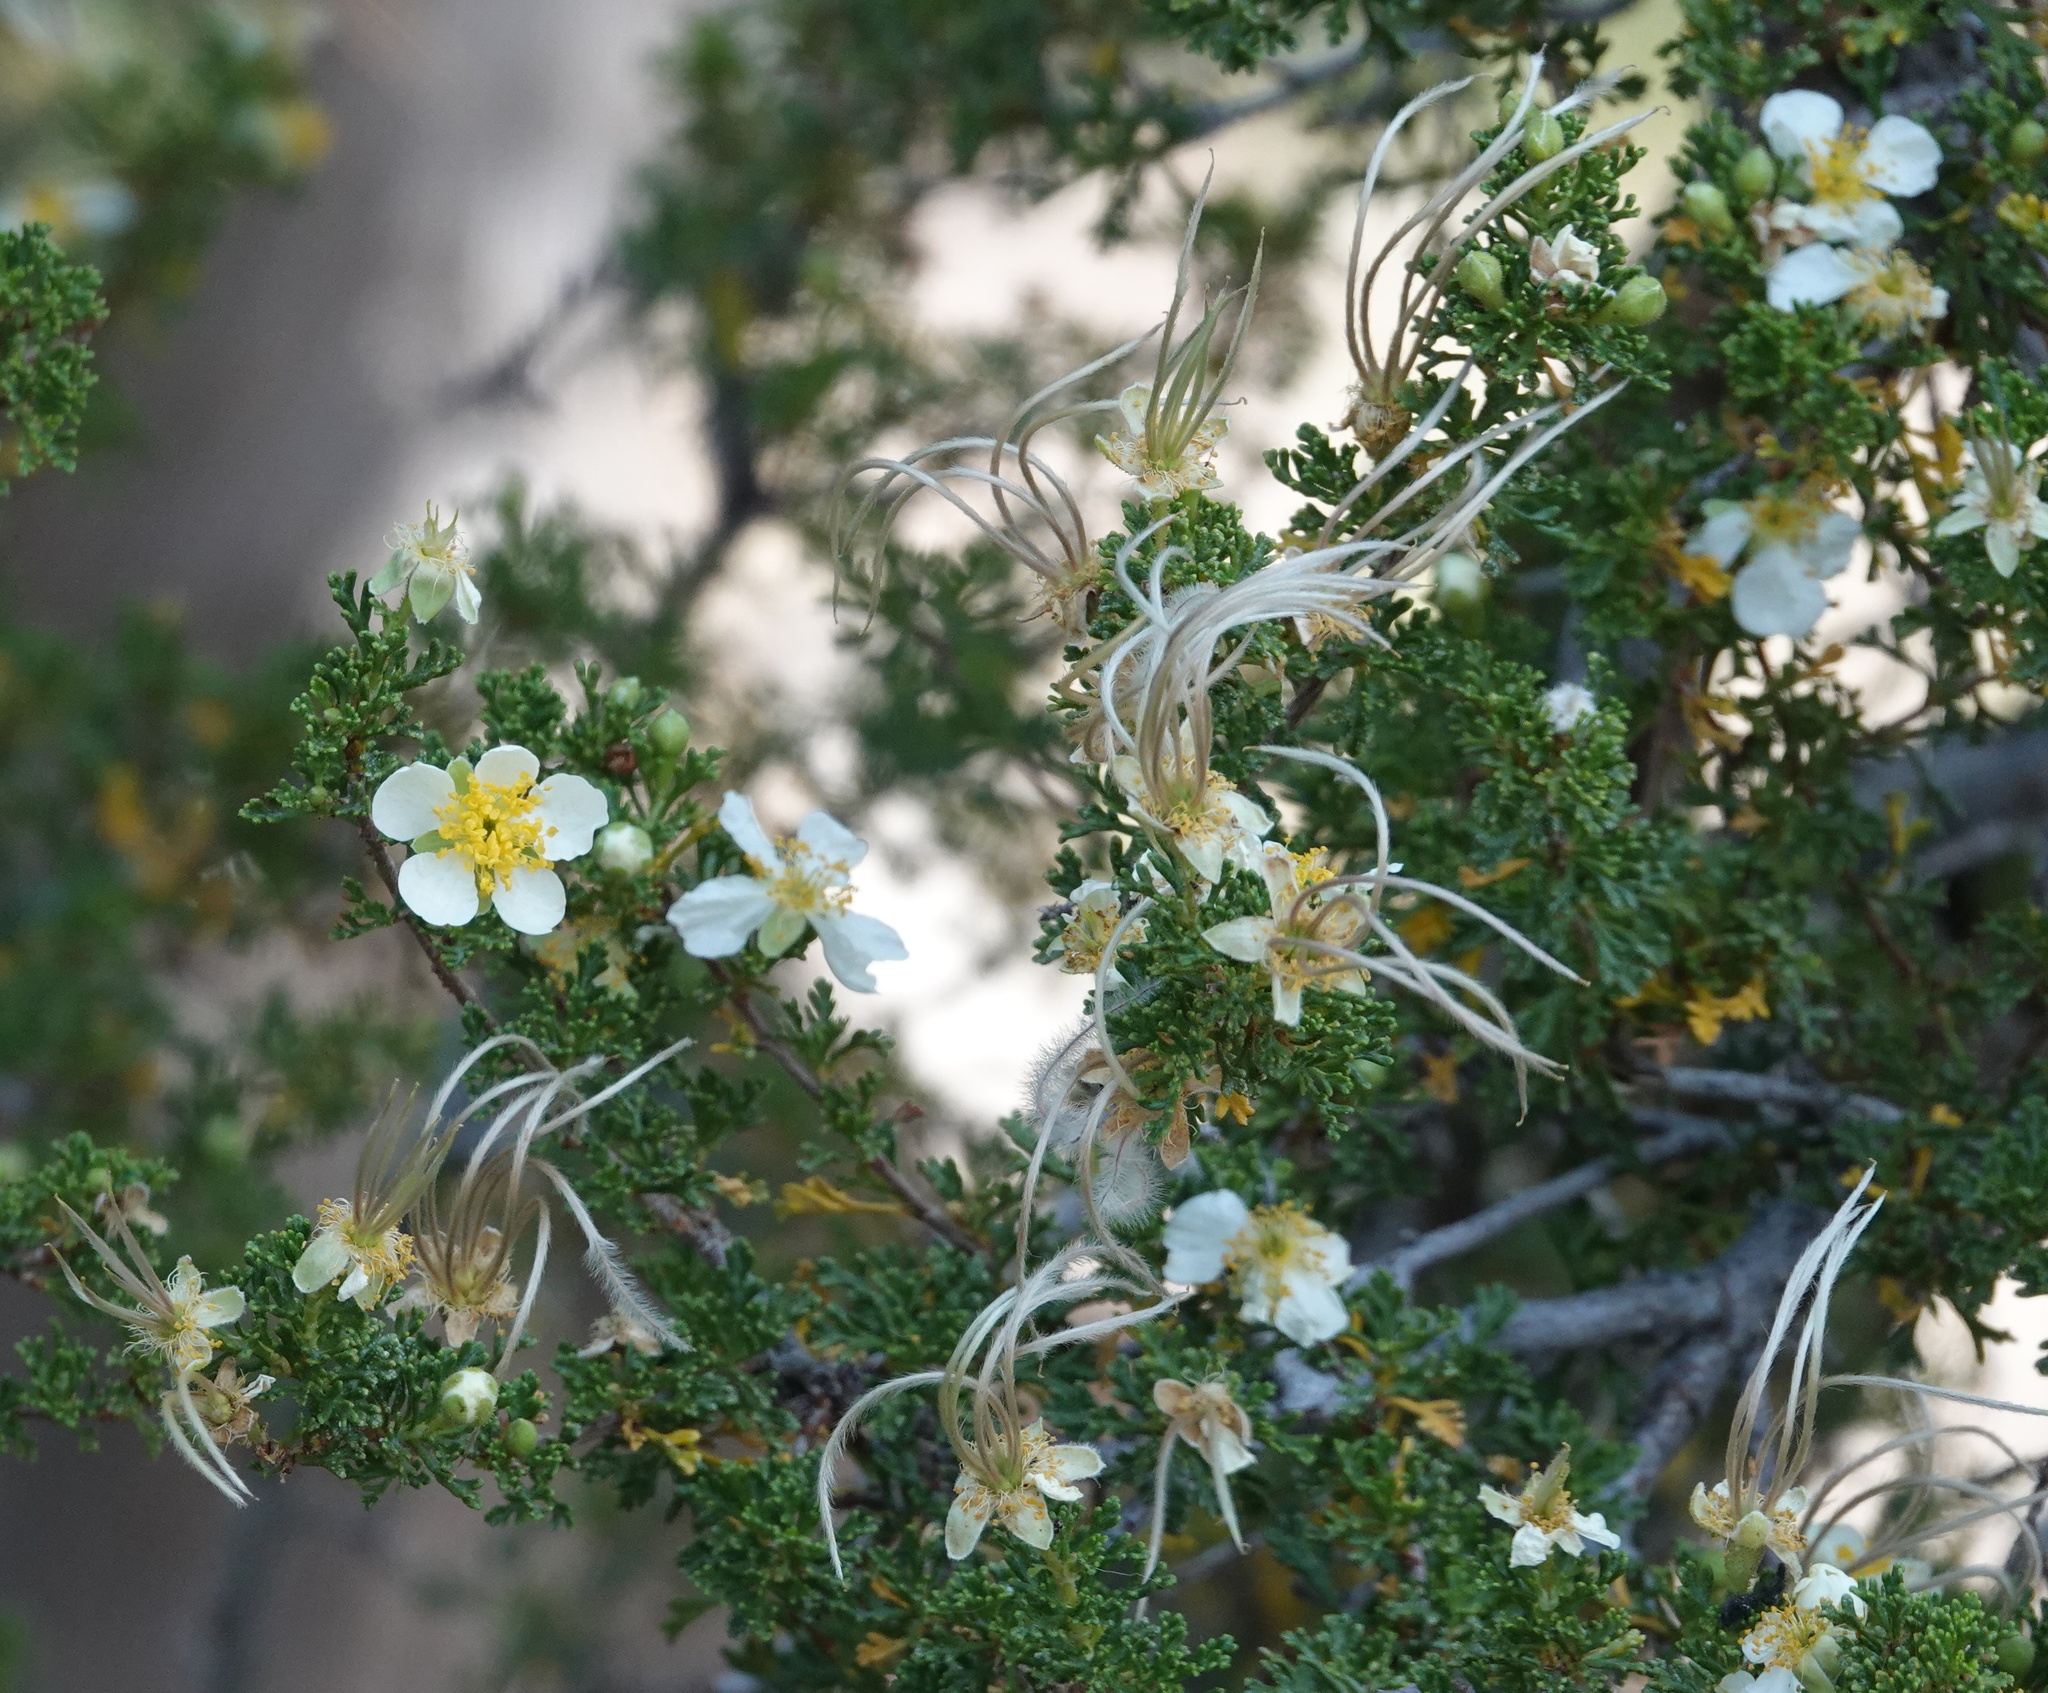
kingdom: Plantae
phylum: Tracheophyta
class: Magnoliopsida
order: Rosales
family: Rosaceae
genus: Purshia
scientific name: Purshia stansburiana
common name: Stansbury's cliffrose
